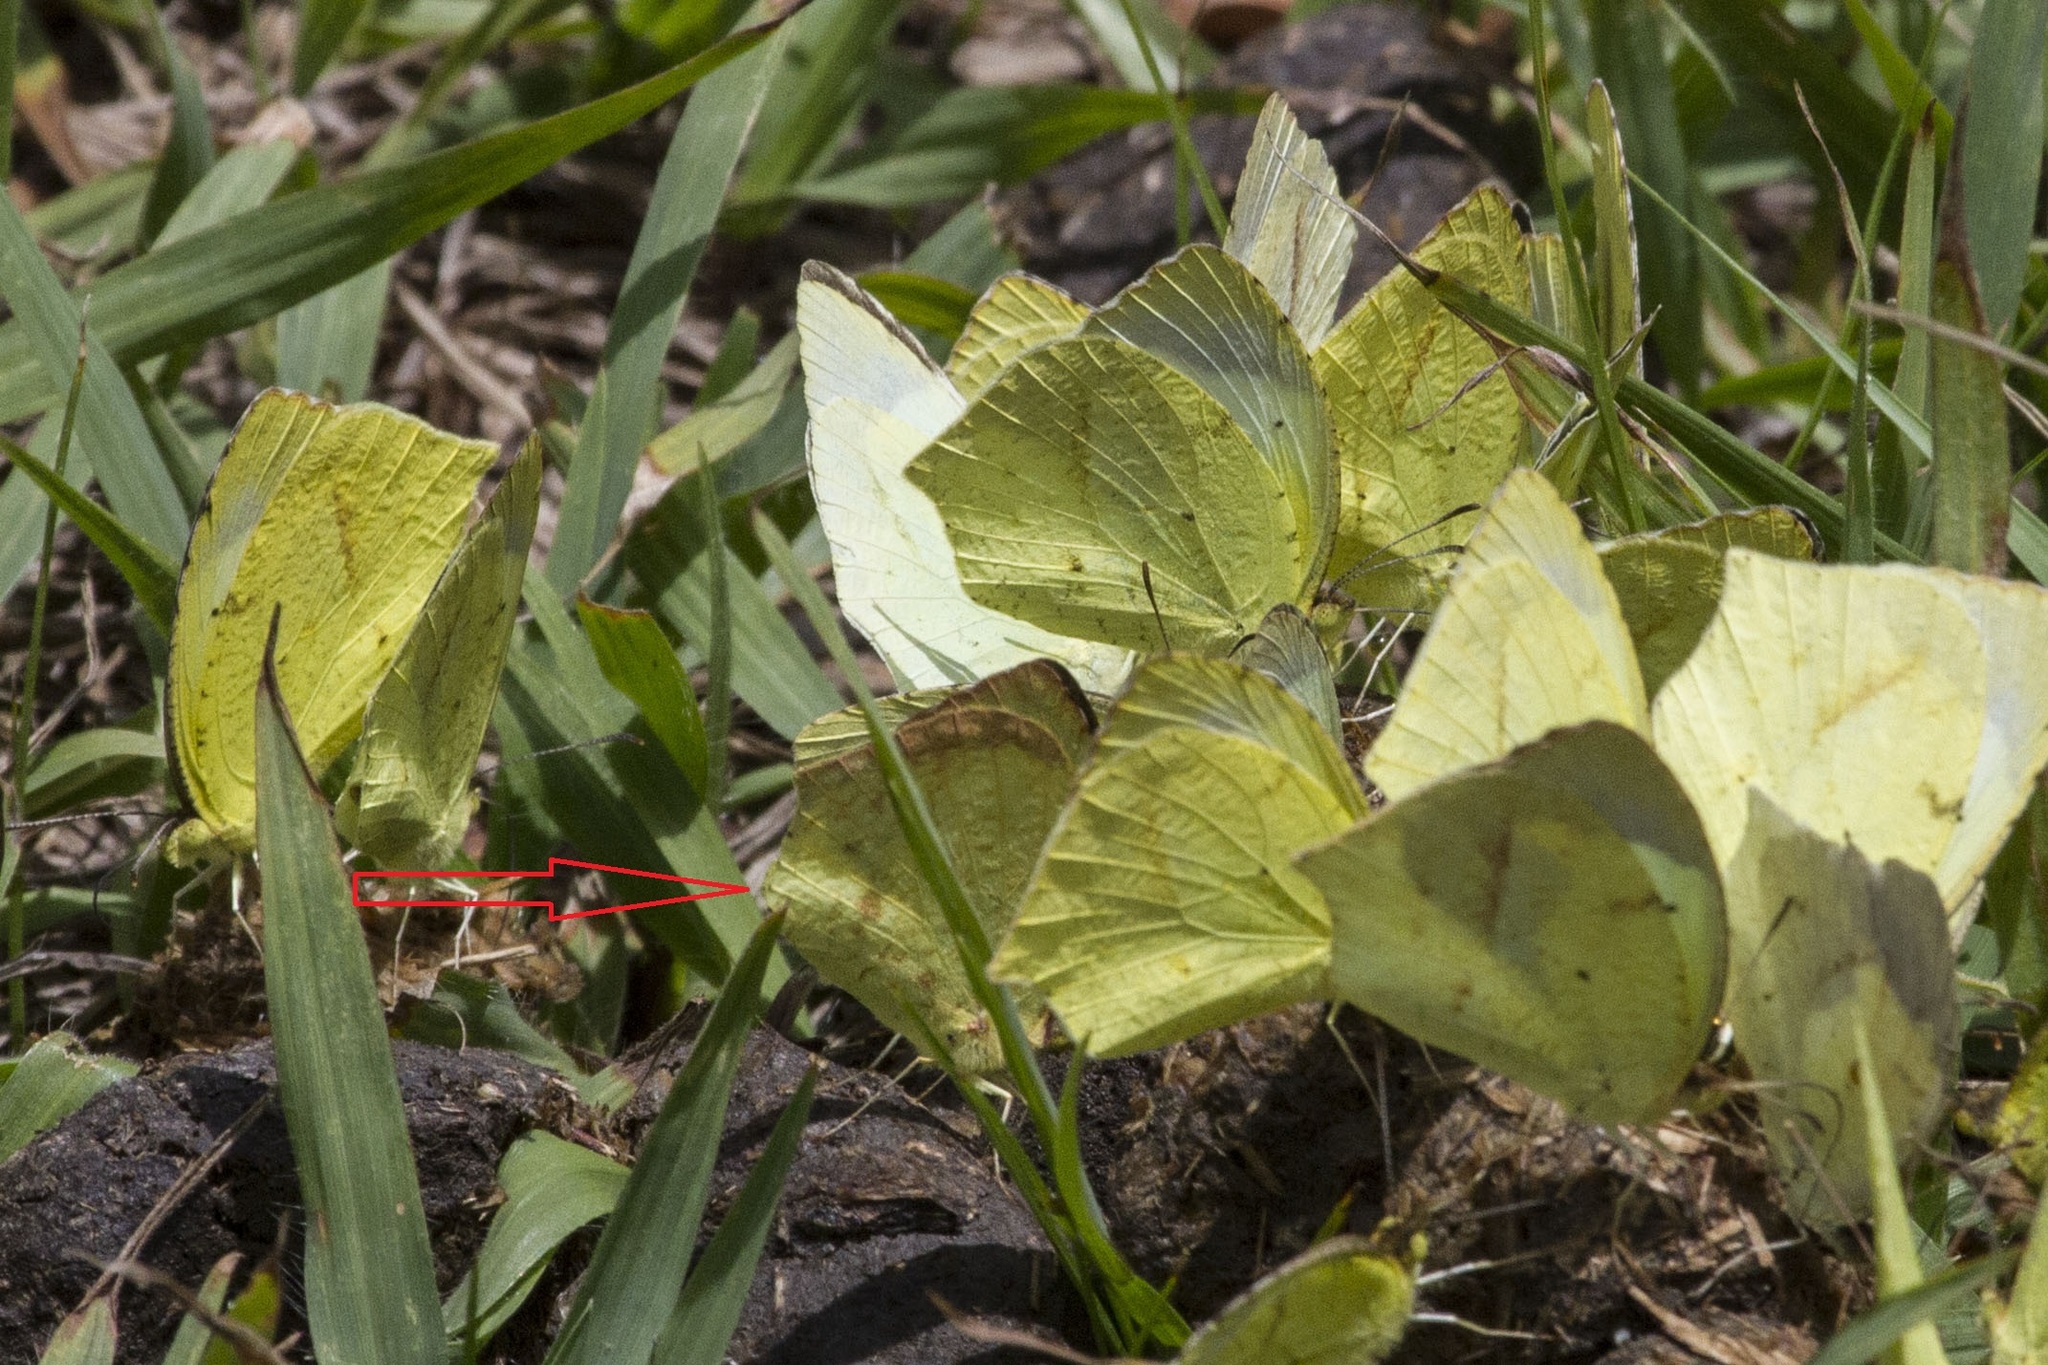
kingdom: Animalia
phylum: Arthropoda
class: Insecta
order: Lepidoptera
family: Pieridae
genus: Abaeis
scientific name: Abaeis mexicana
